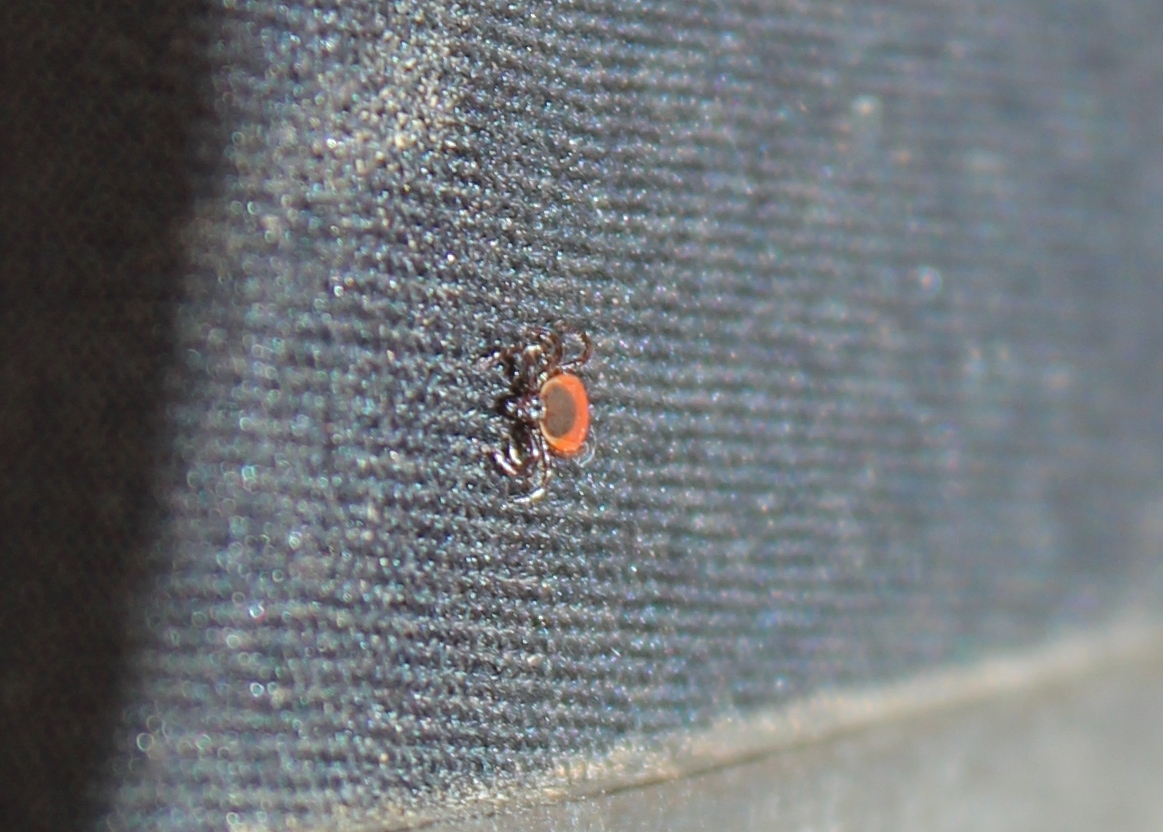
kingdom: Animalia
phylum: Arthropoda
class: Arachnida
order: Ixodida
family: Ixodidae
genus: Ixodes
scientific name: Ixodes scapularis
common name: Black legged tick
